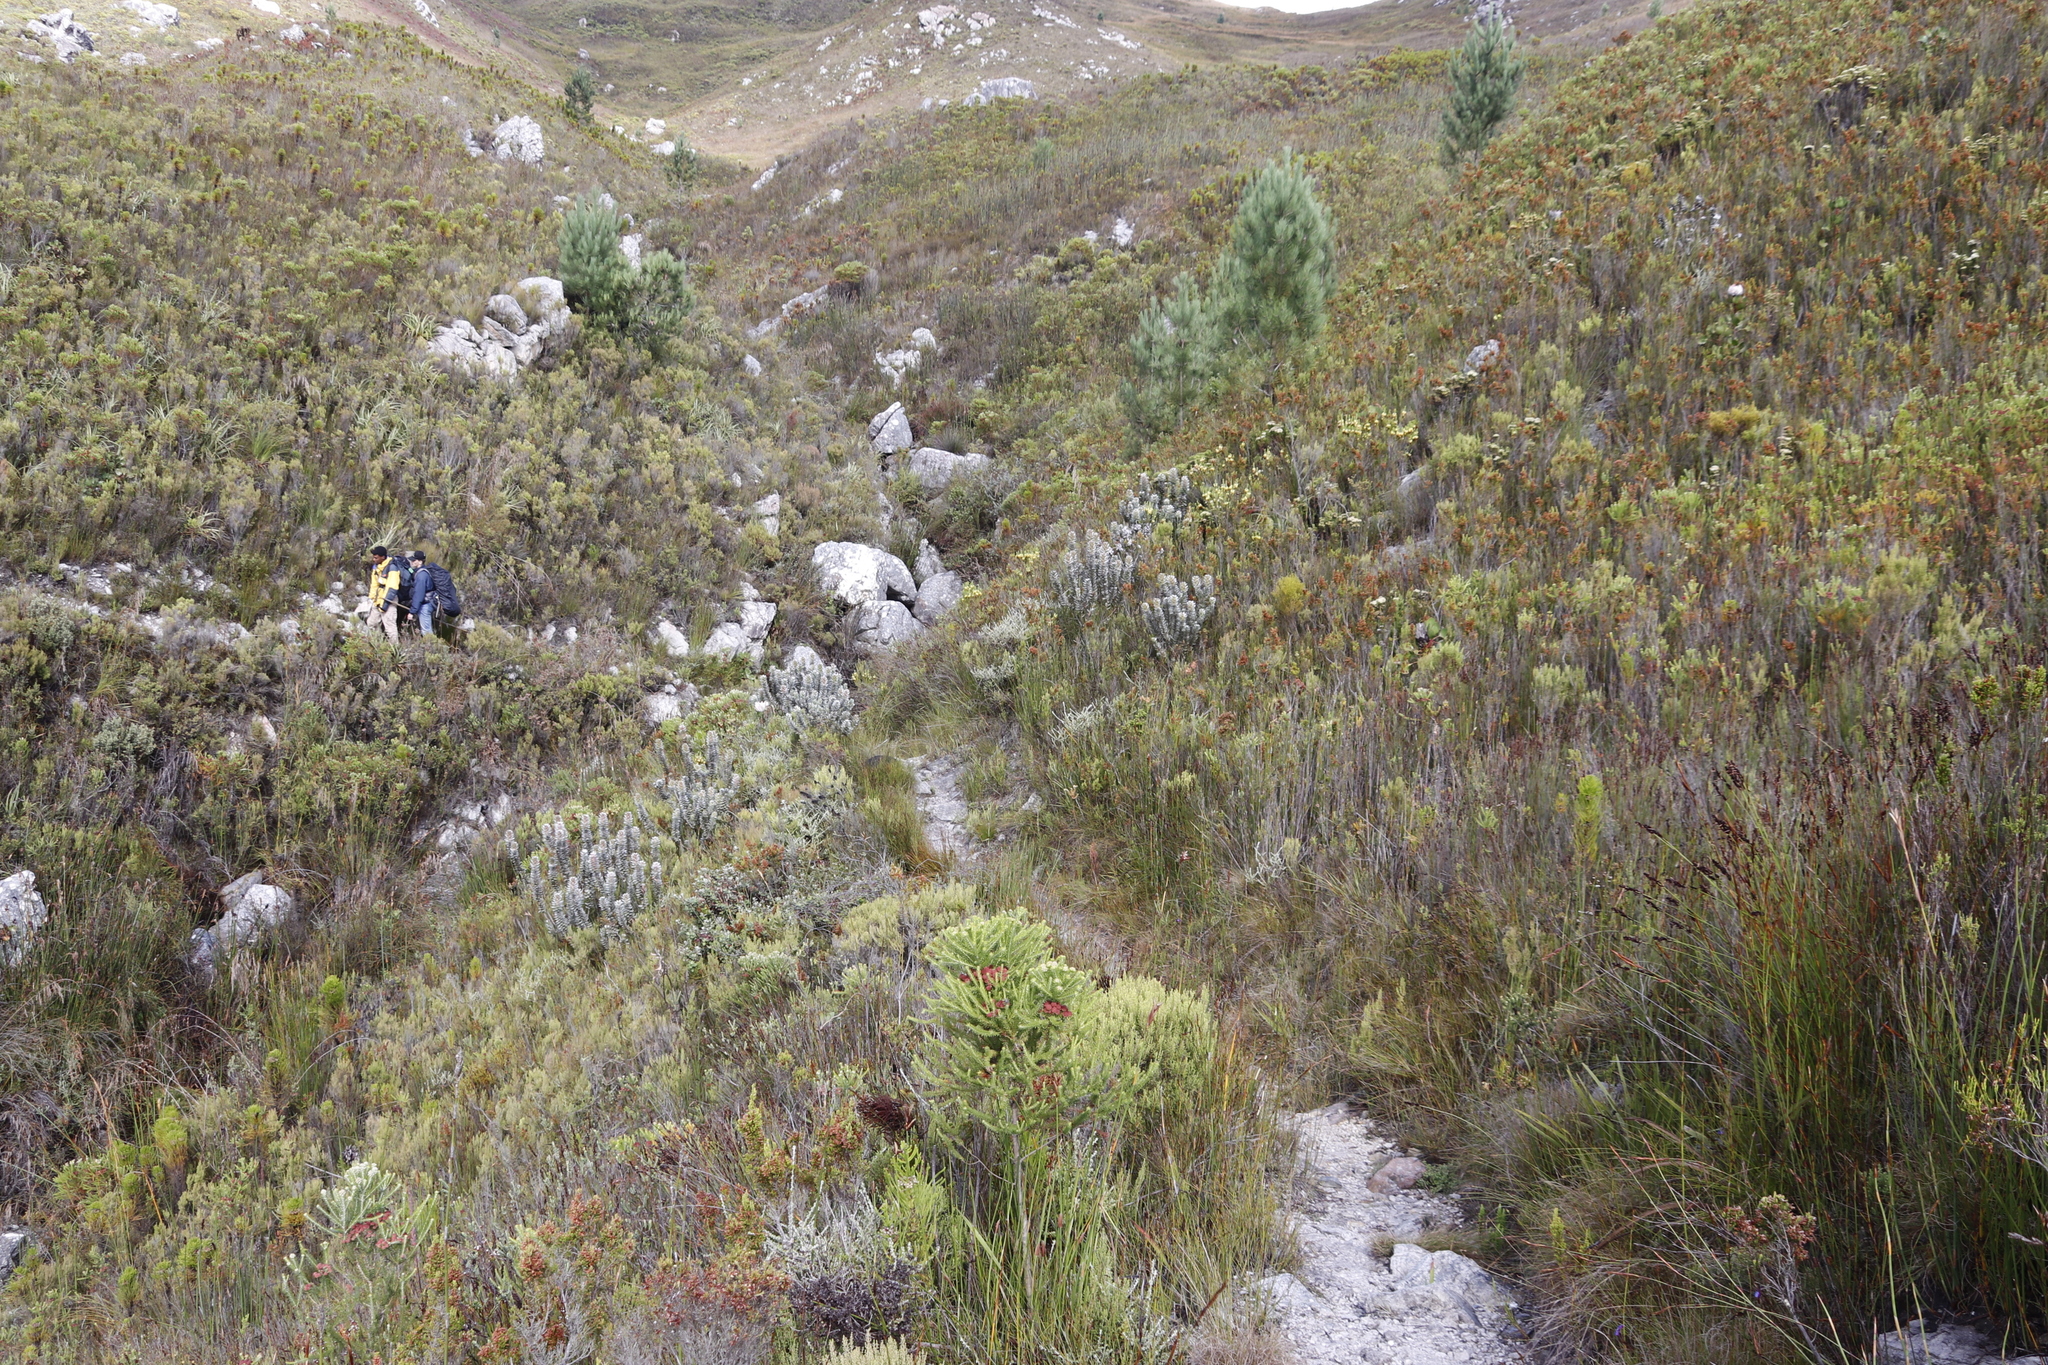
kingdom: Plantae
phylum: Tracheophyta
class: Pinopsida
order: Pinales
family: Pinaceae
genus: Pinus
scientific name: Pinus radiata
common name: Monterey pine
